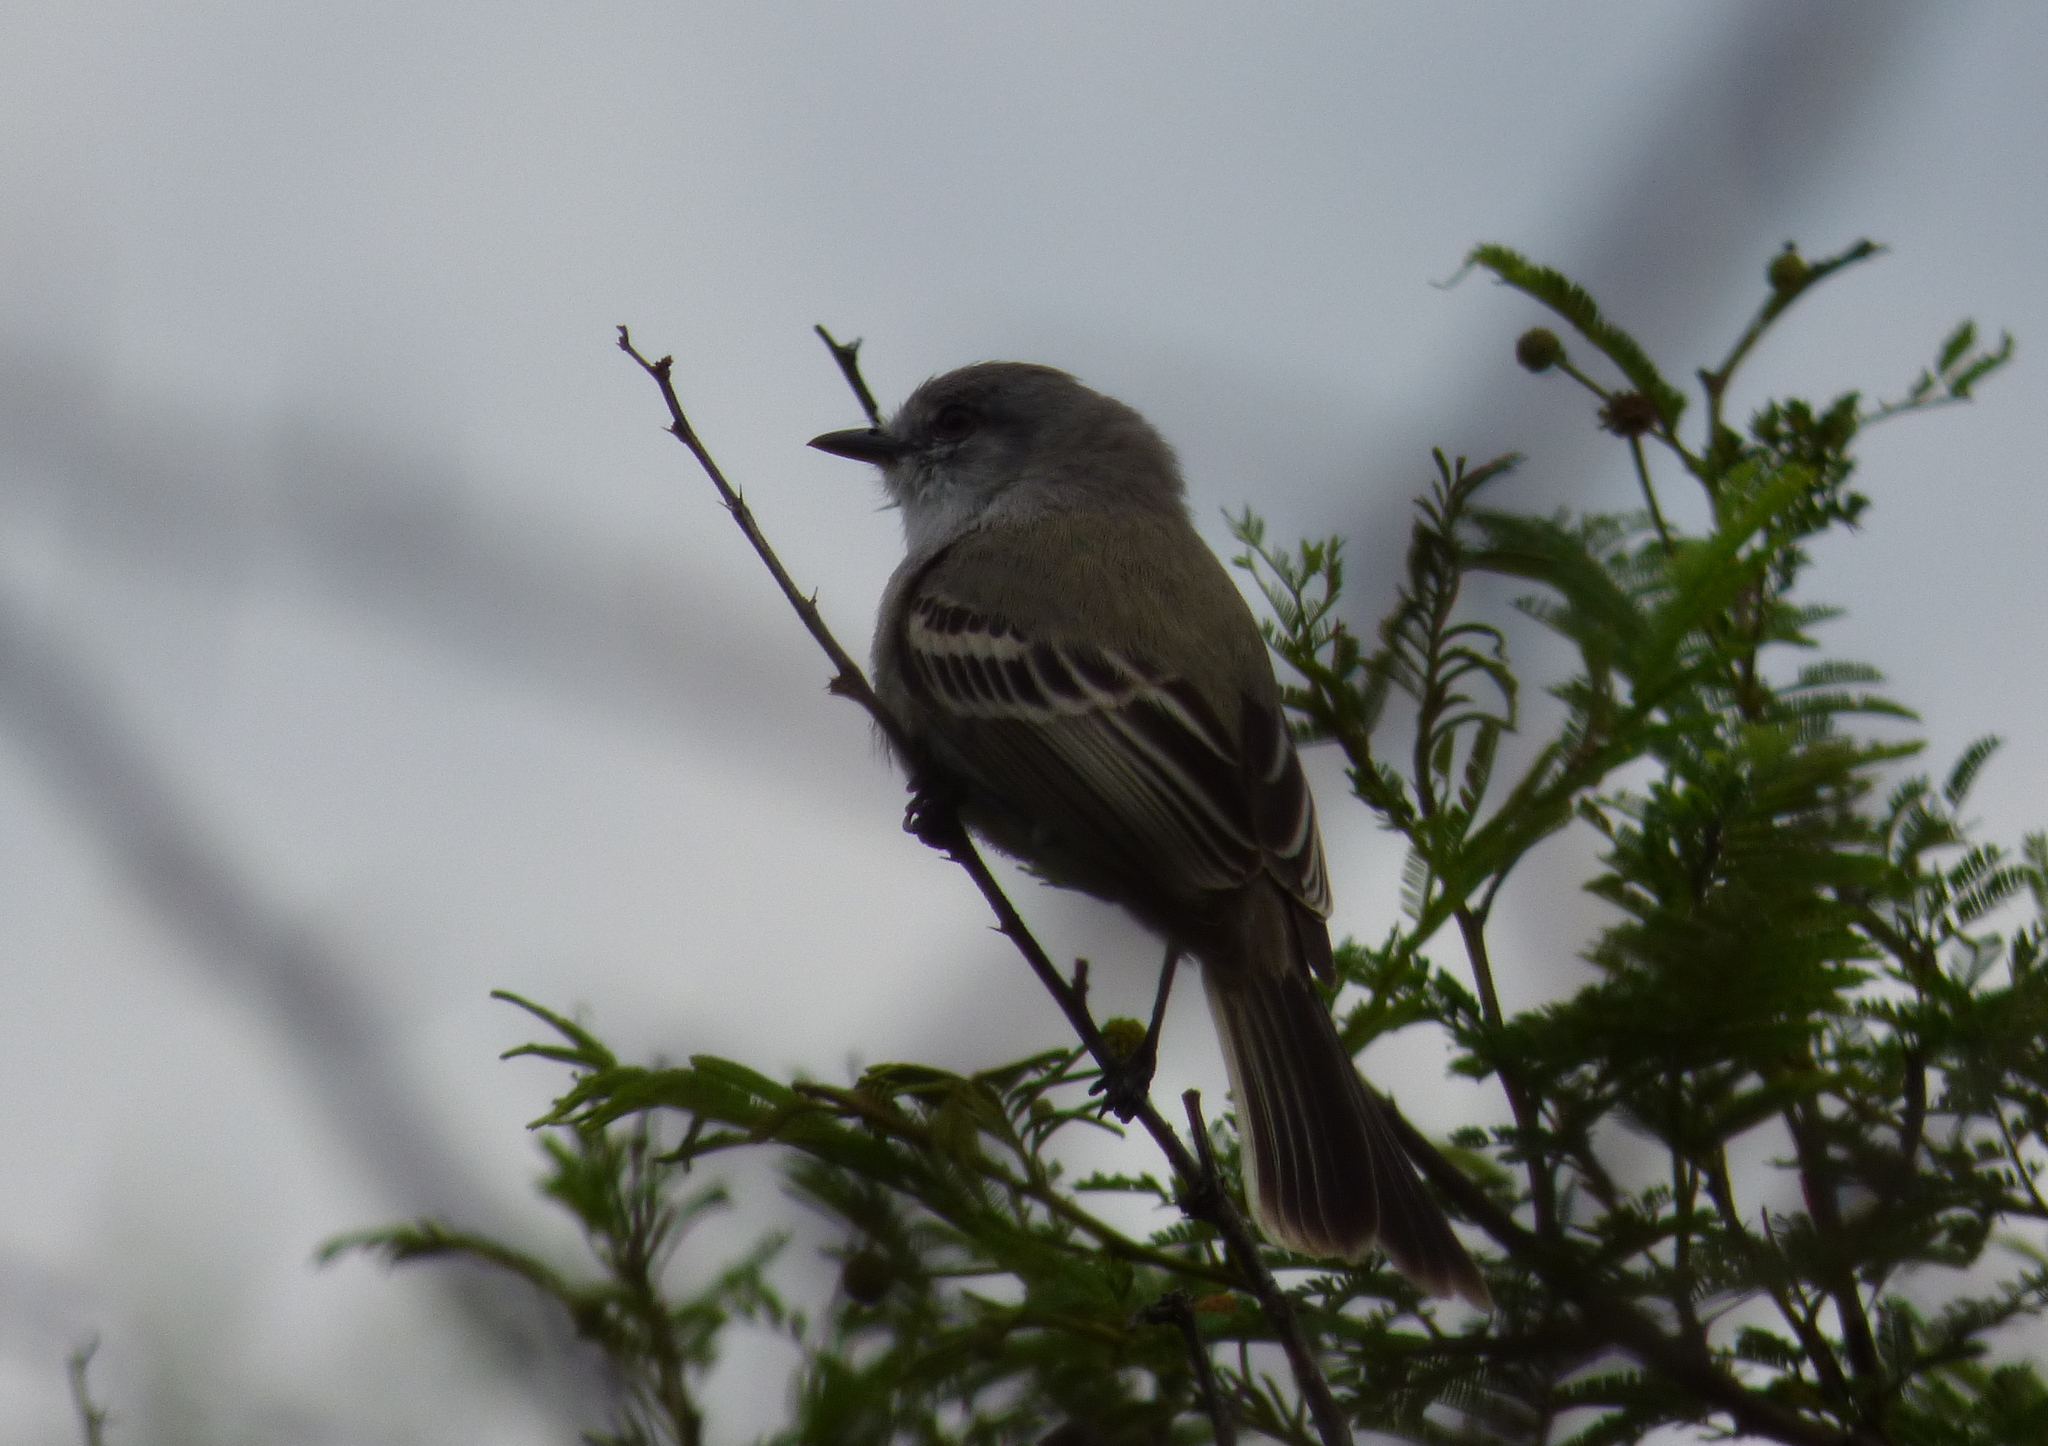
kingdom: Animalia
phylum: Chordata
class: Aves
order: Passeriformes
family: Tyrannidae
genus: Suiriri
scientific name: Suiriri suiriri
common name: Suiriri flycatcher
